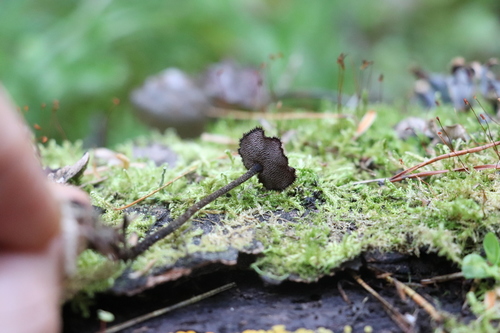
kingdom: Fungi
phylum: Basidiomycota
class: Agaricomycetes
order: Russulales
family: Auriscalpiaceae
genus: Auriscalpium
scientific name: Auriscalpium vulgare
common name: Earpick fungus
